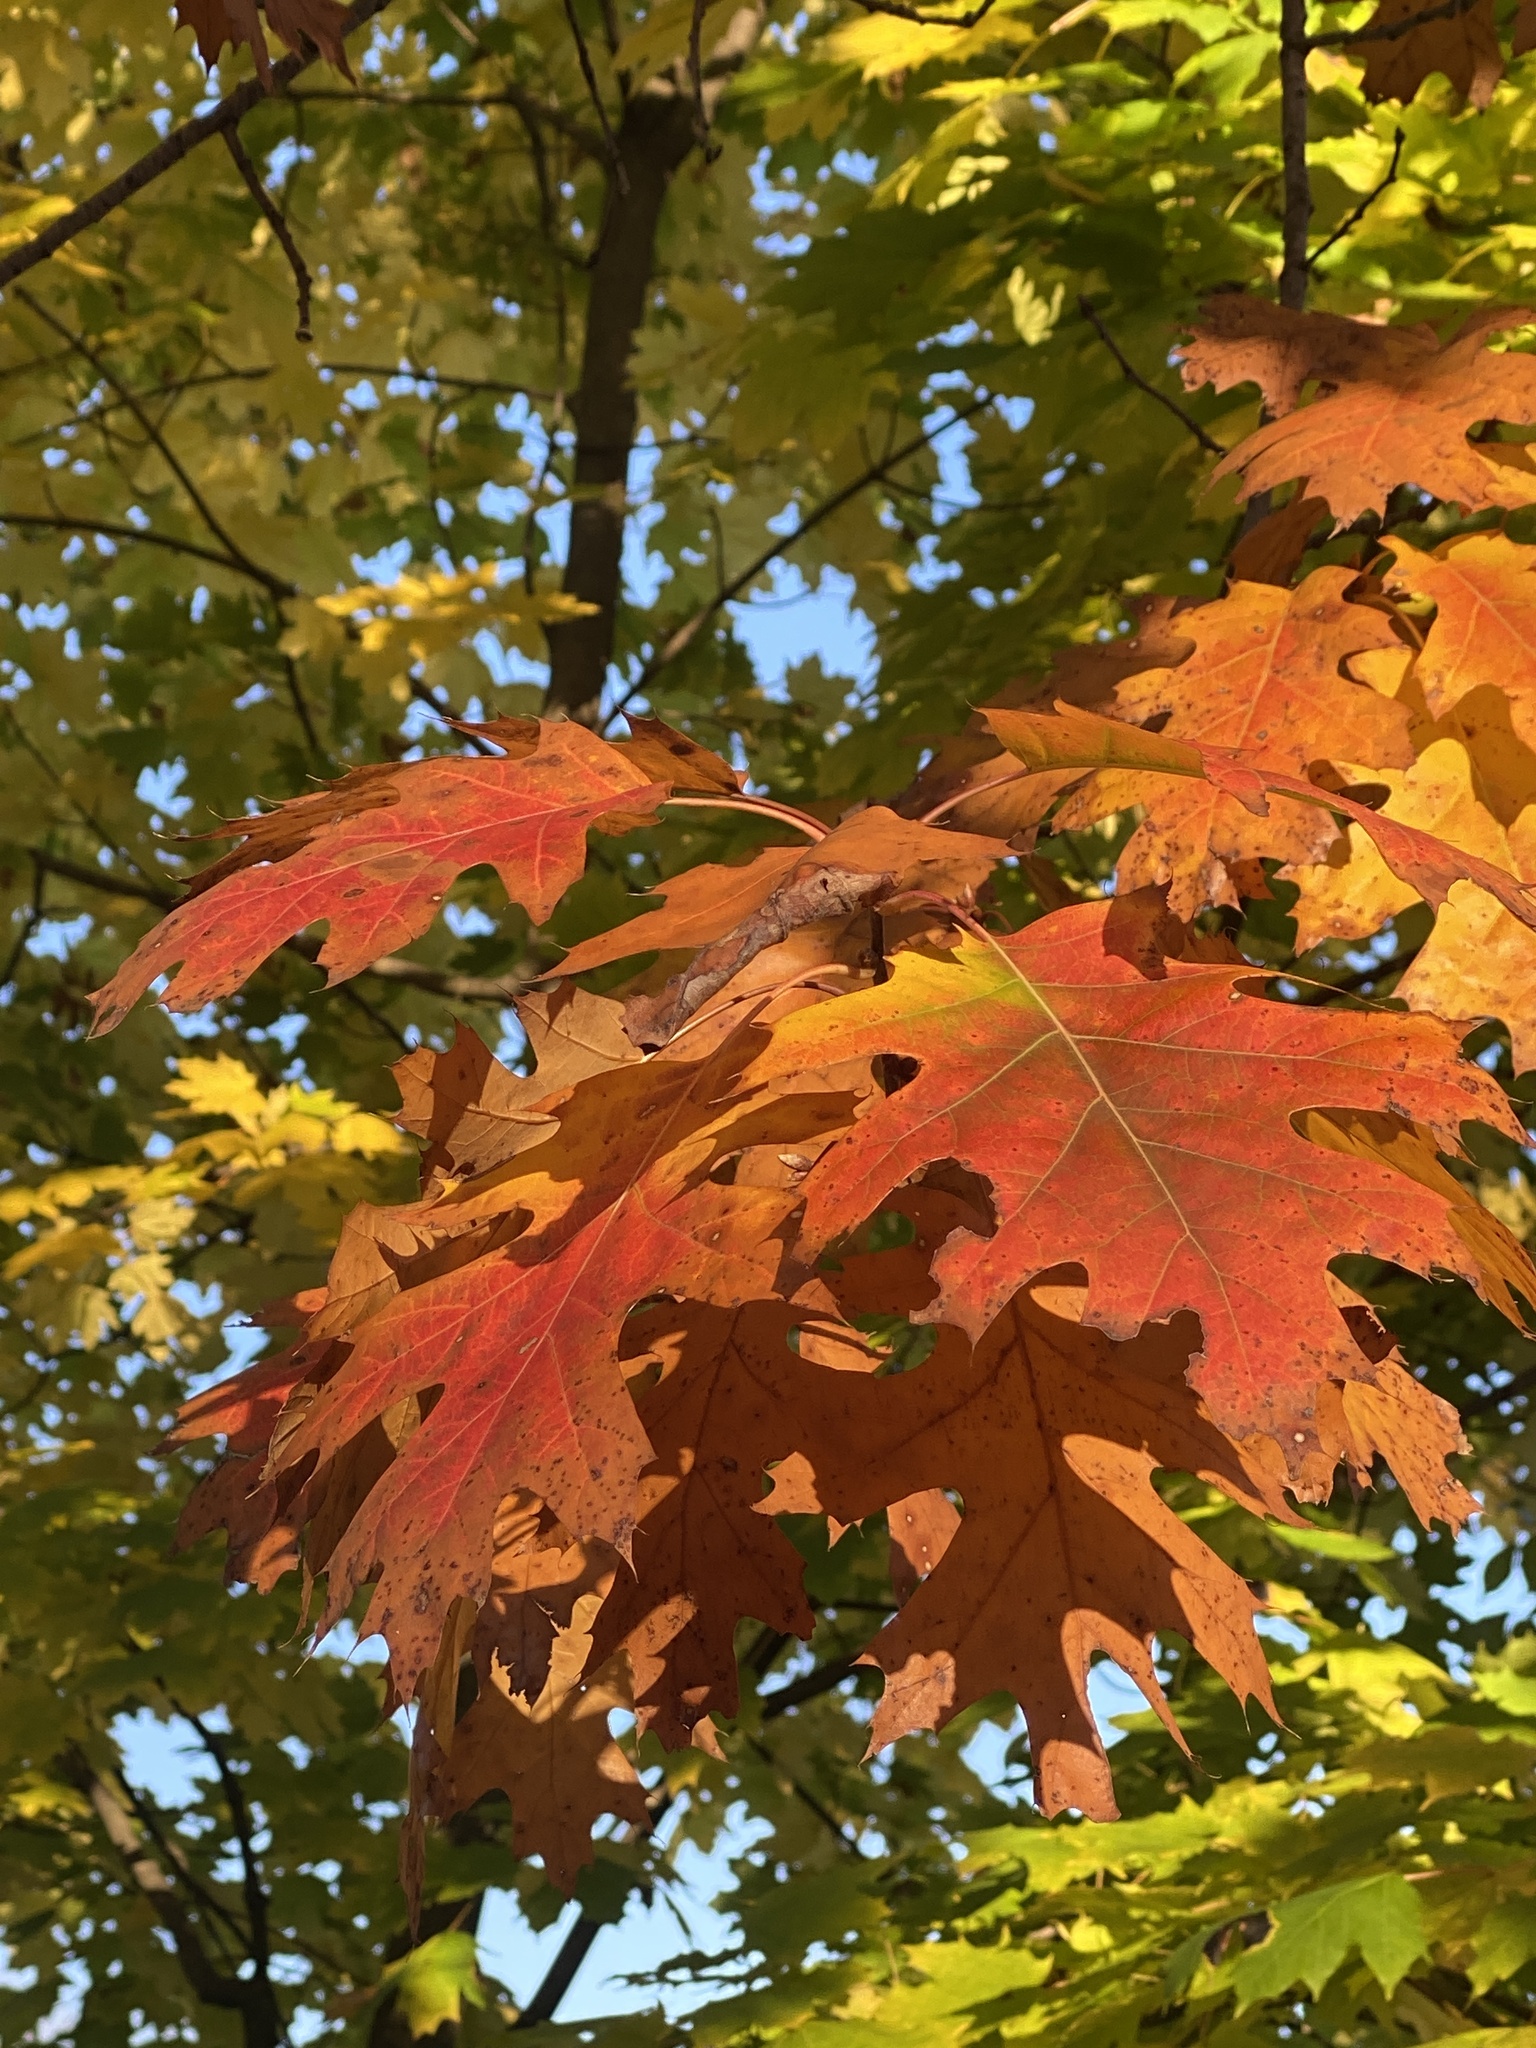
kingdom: Plantae
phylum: Tracheophyta
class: Magnoliopsida
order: Fagales
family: Fagaceae
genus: Quercus
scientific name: Quercus rubra
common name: Red oak
